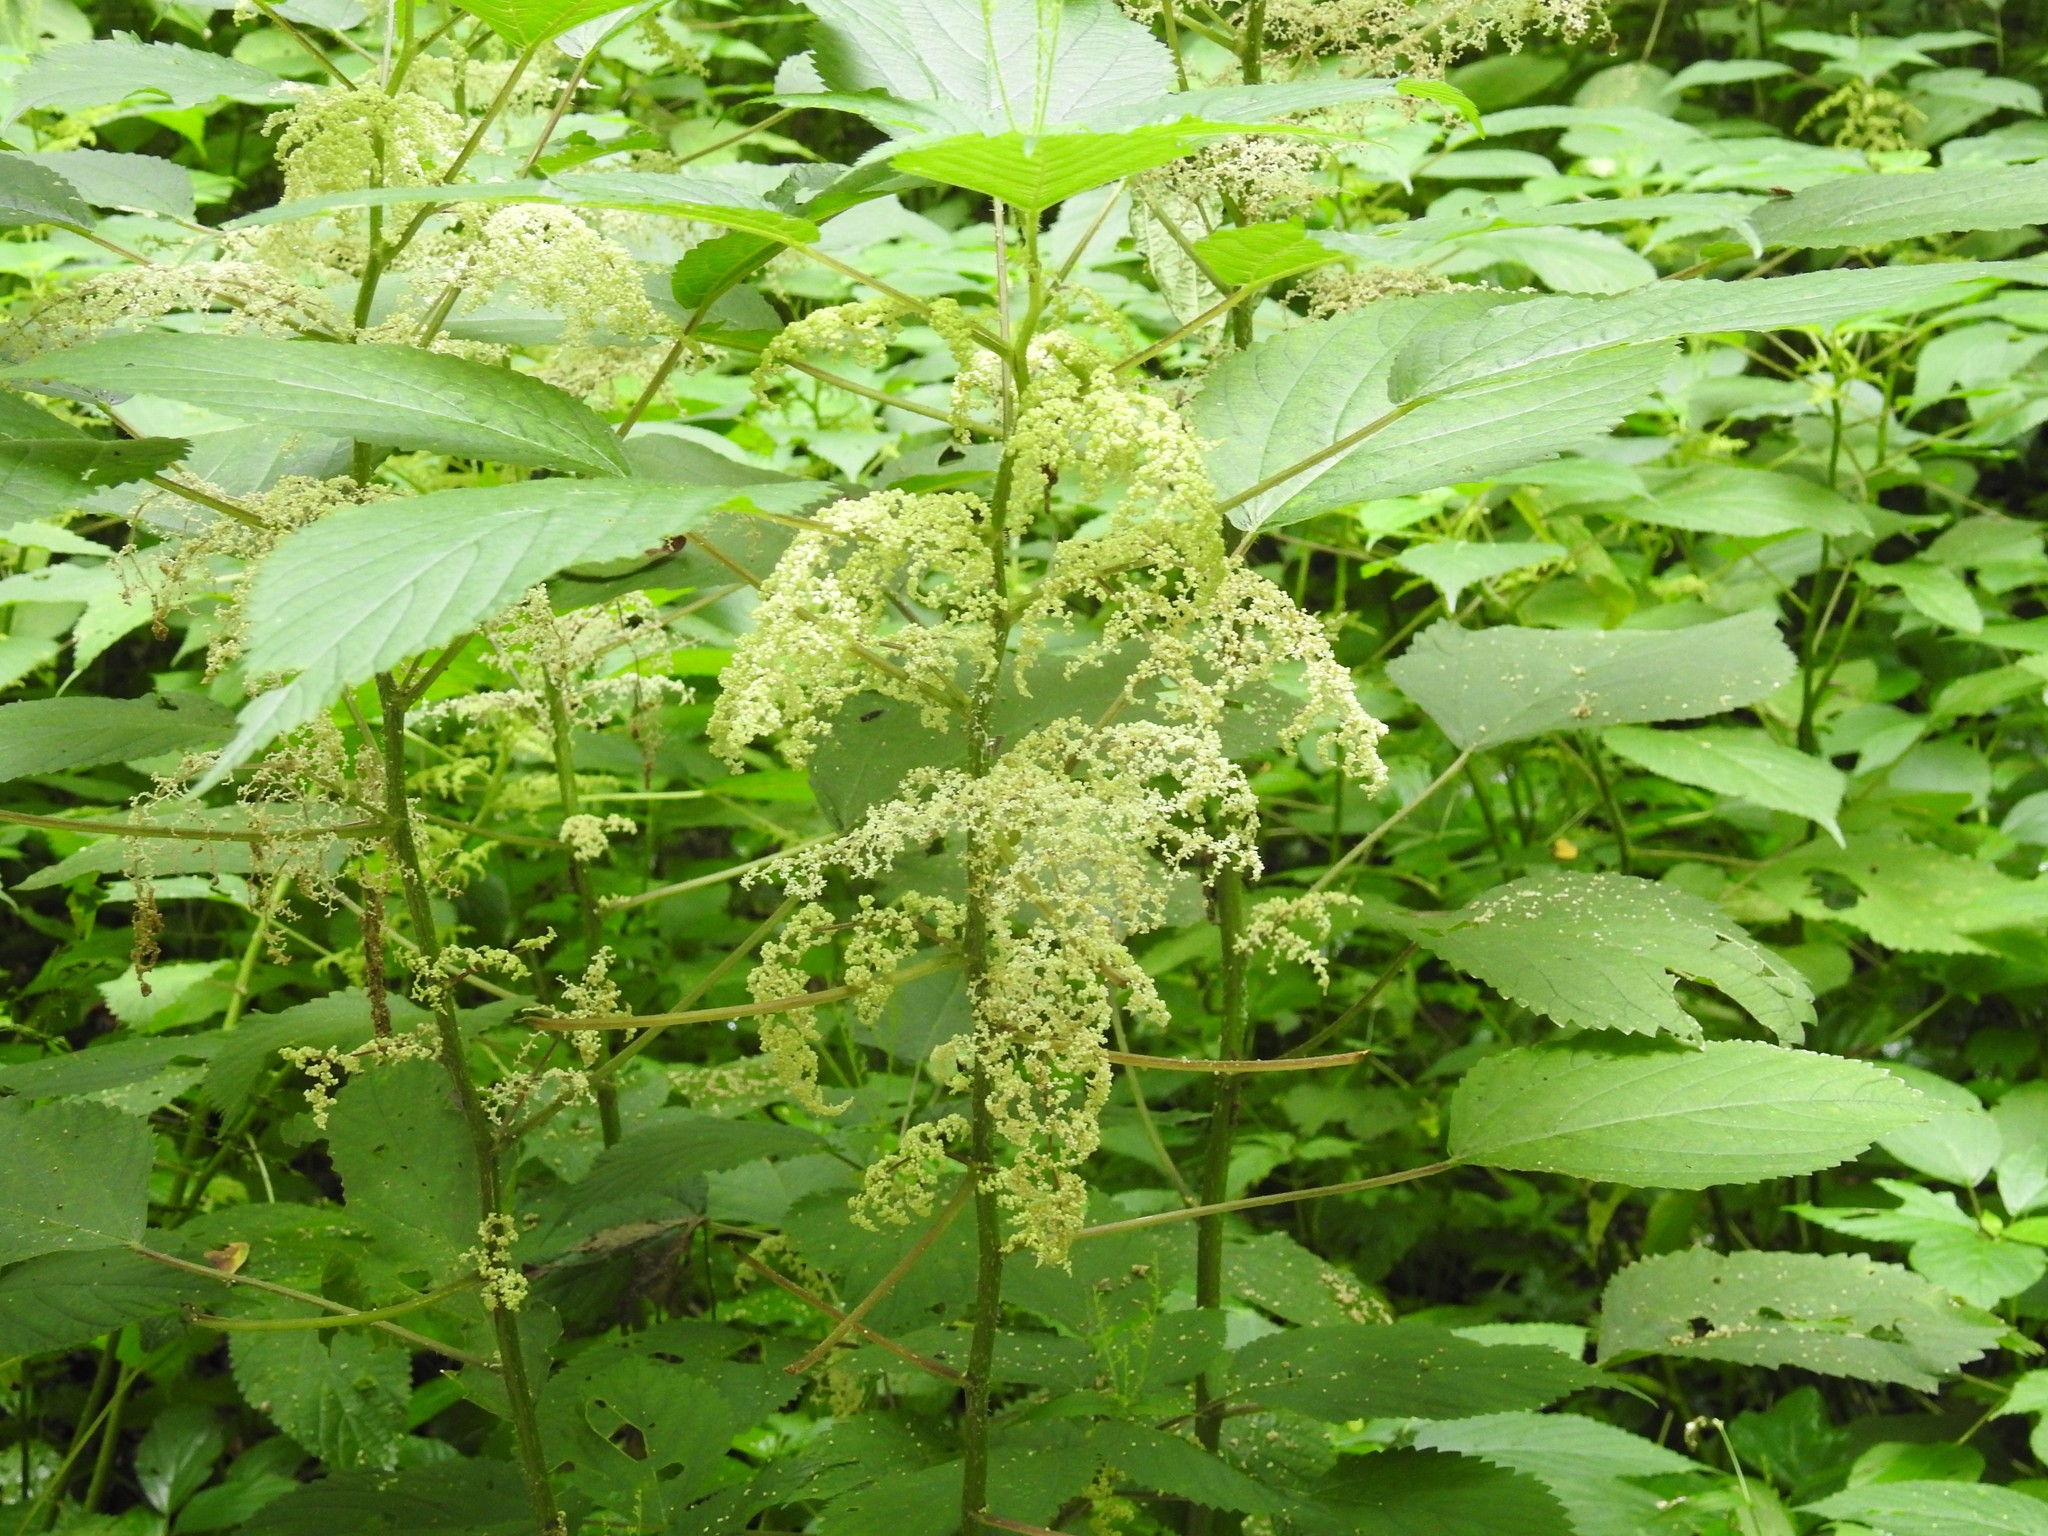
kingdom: Plantae
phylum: Tracheophyta
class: Magnoliopsida
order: Rosales
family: Urticaceae
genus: Laportea
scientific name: Laportea canadensis
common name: Canada nettle
